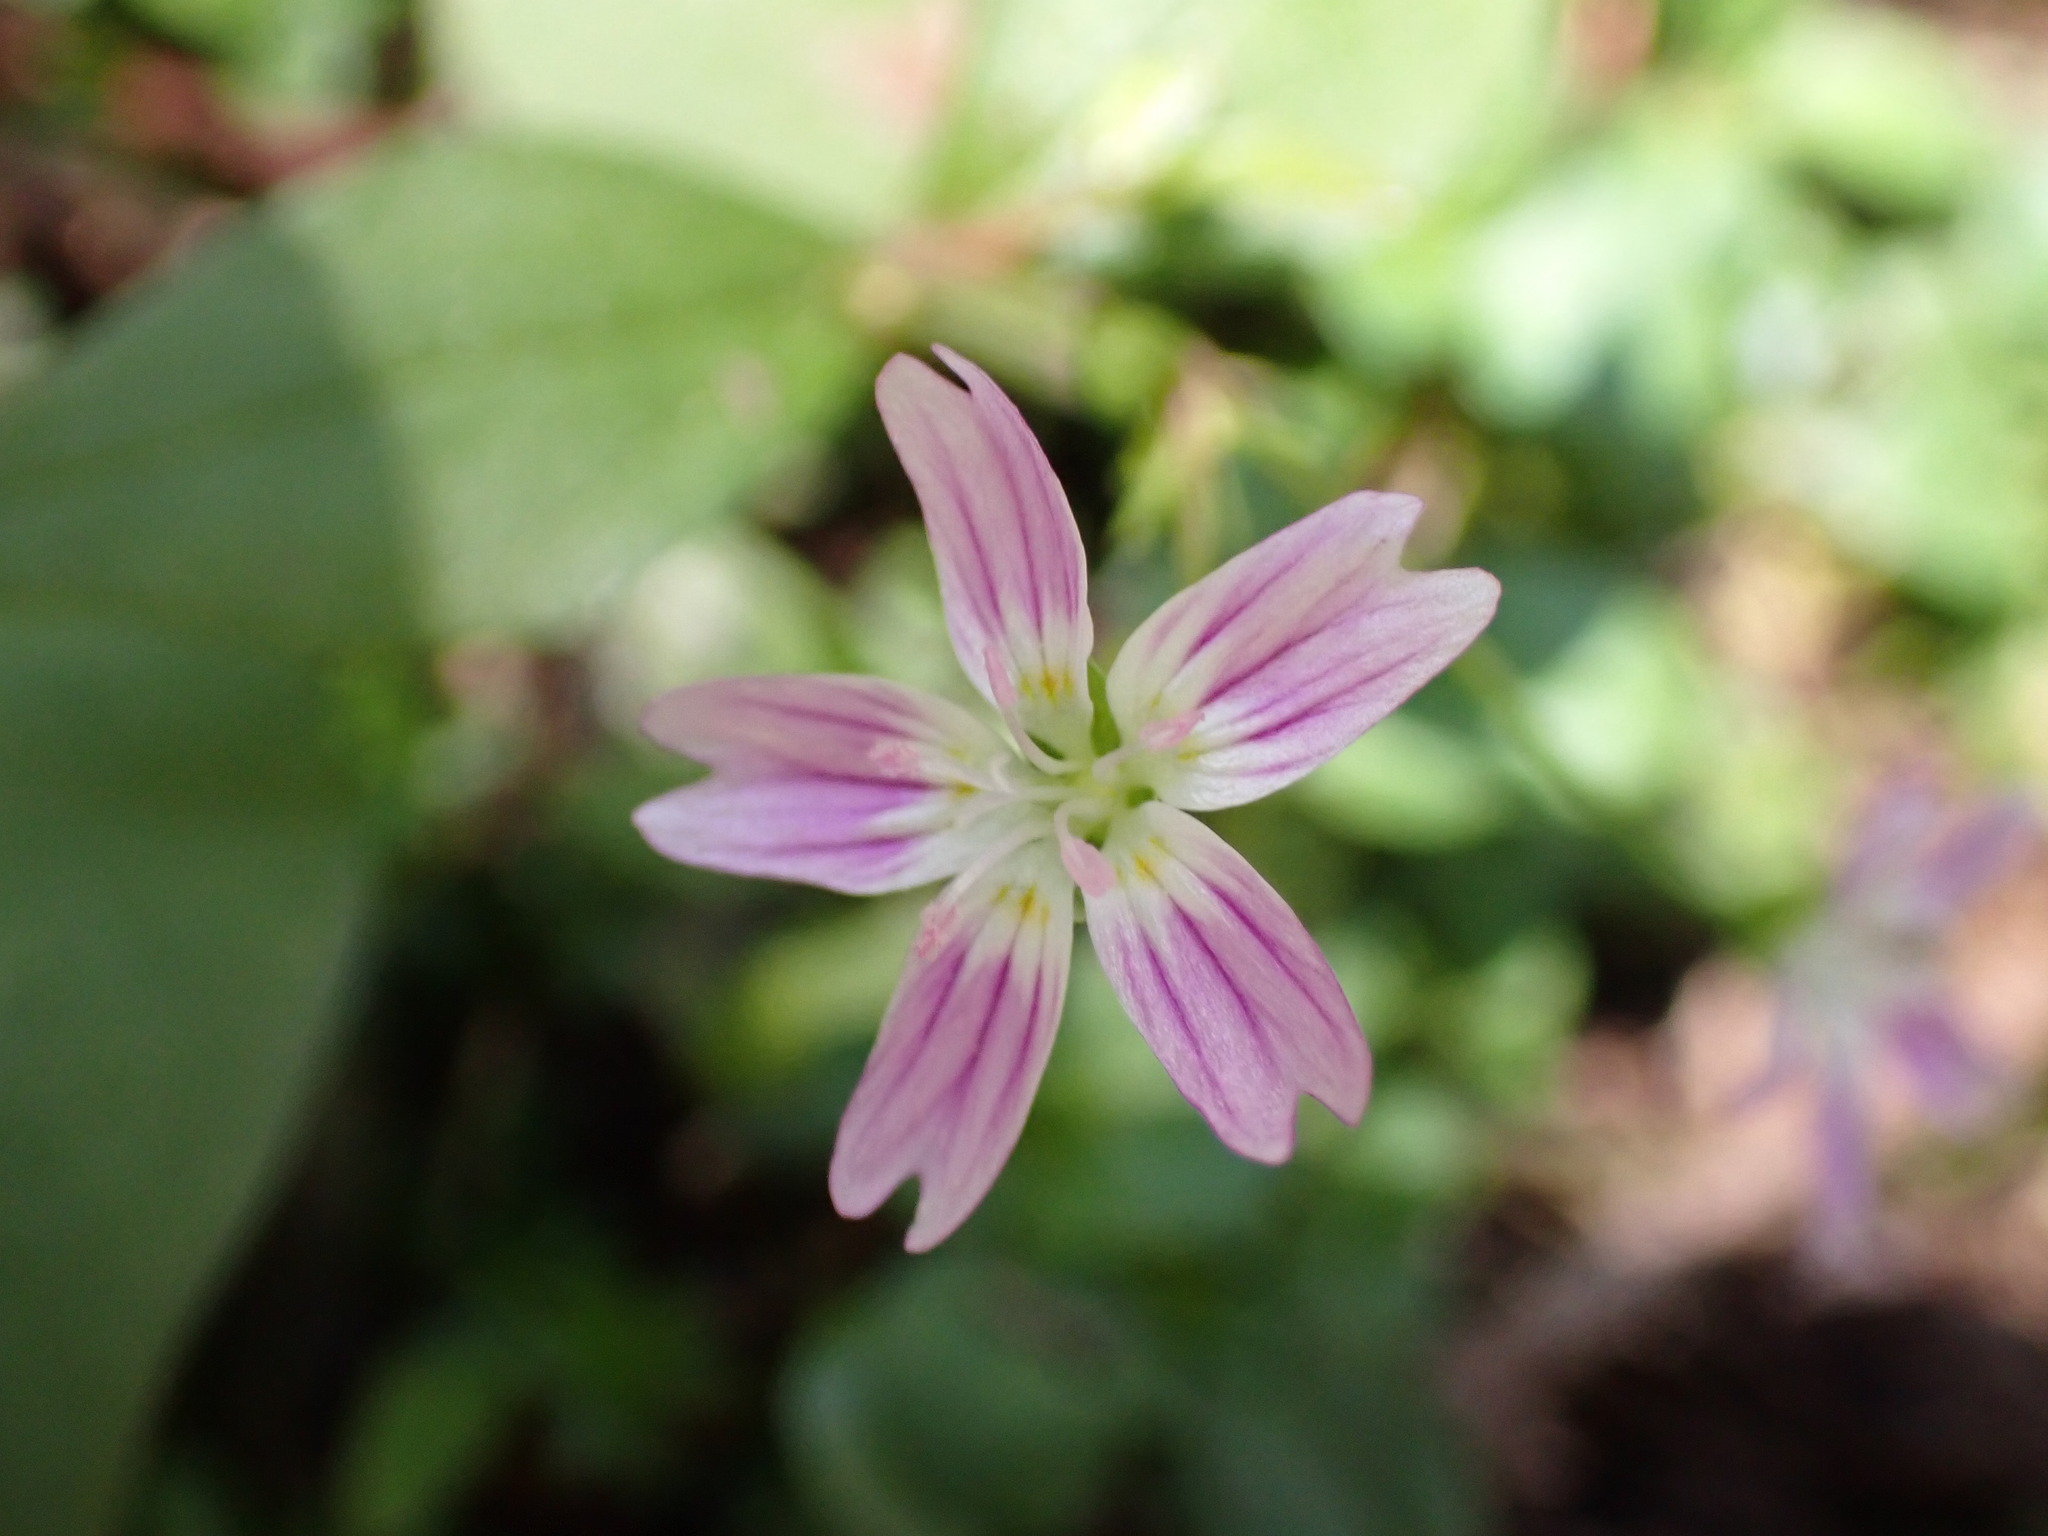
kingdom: Plantae
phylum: Tracheophyta
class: Magnoliopsida
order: Caryophyllales
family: Montiaceae
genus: Claytonia
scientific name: Claytonia sibirica
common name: Pink purslane
